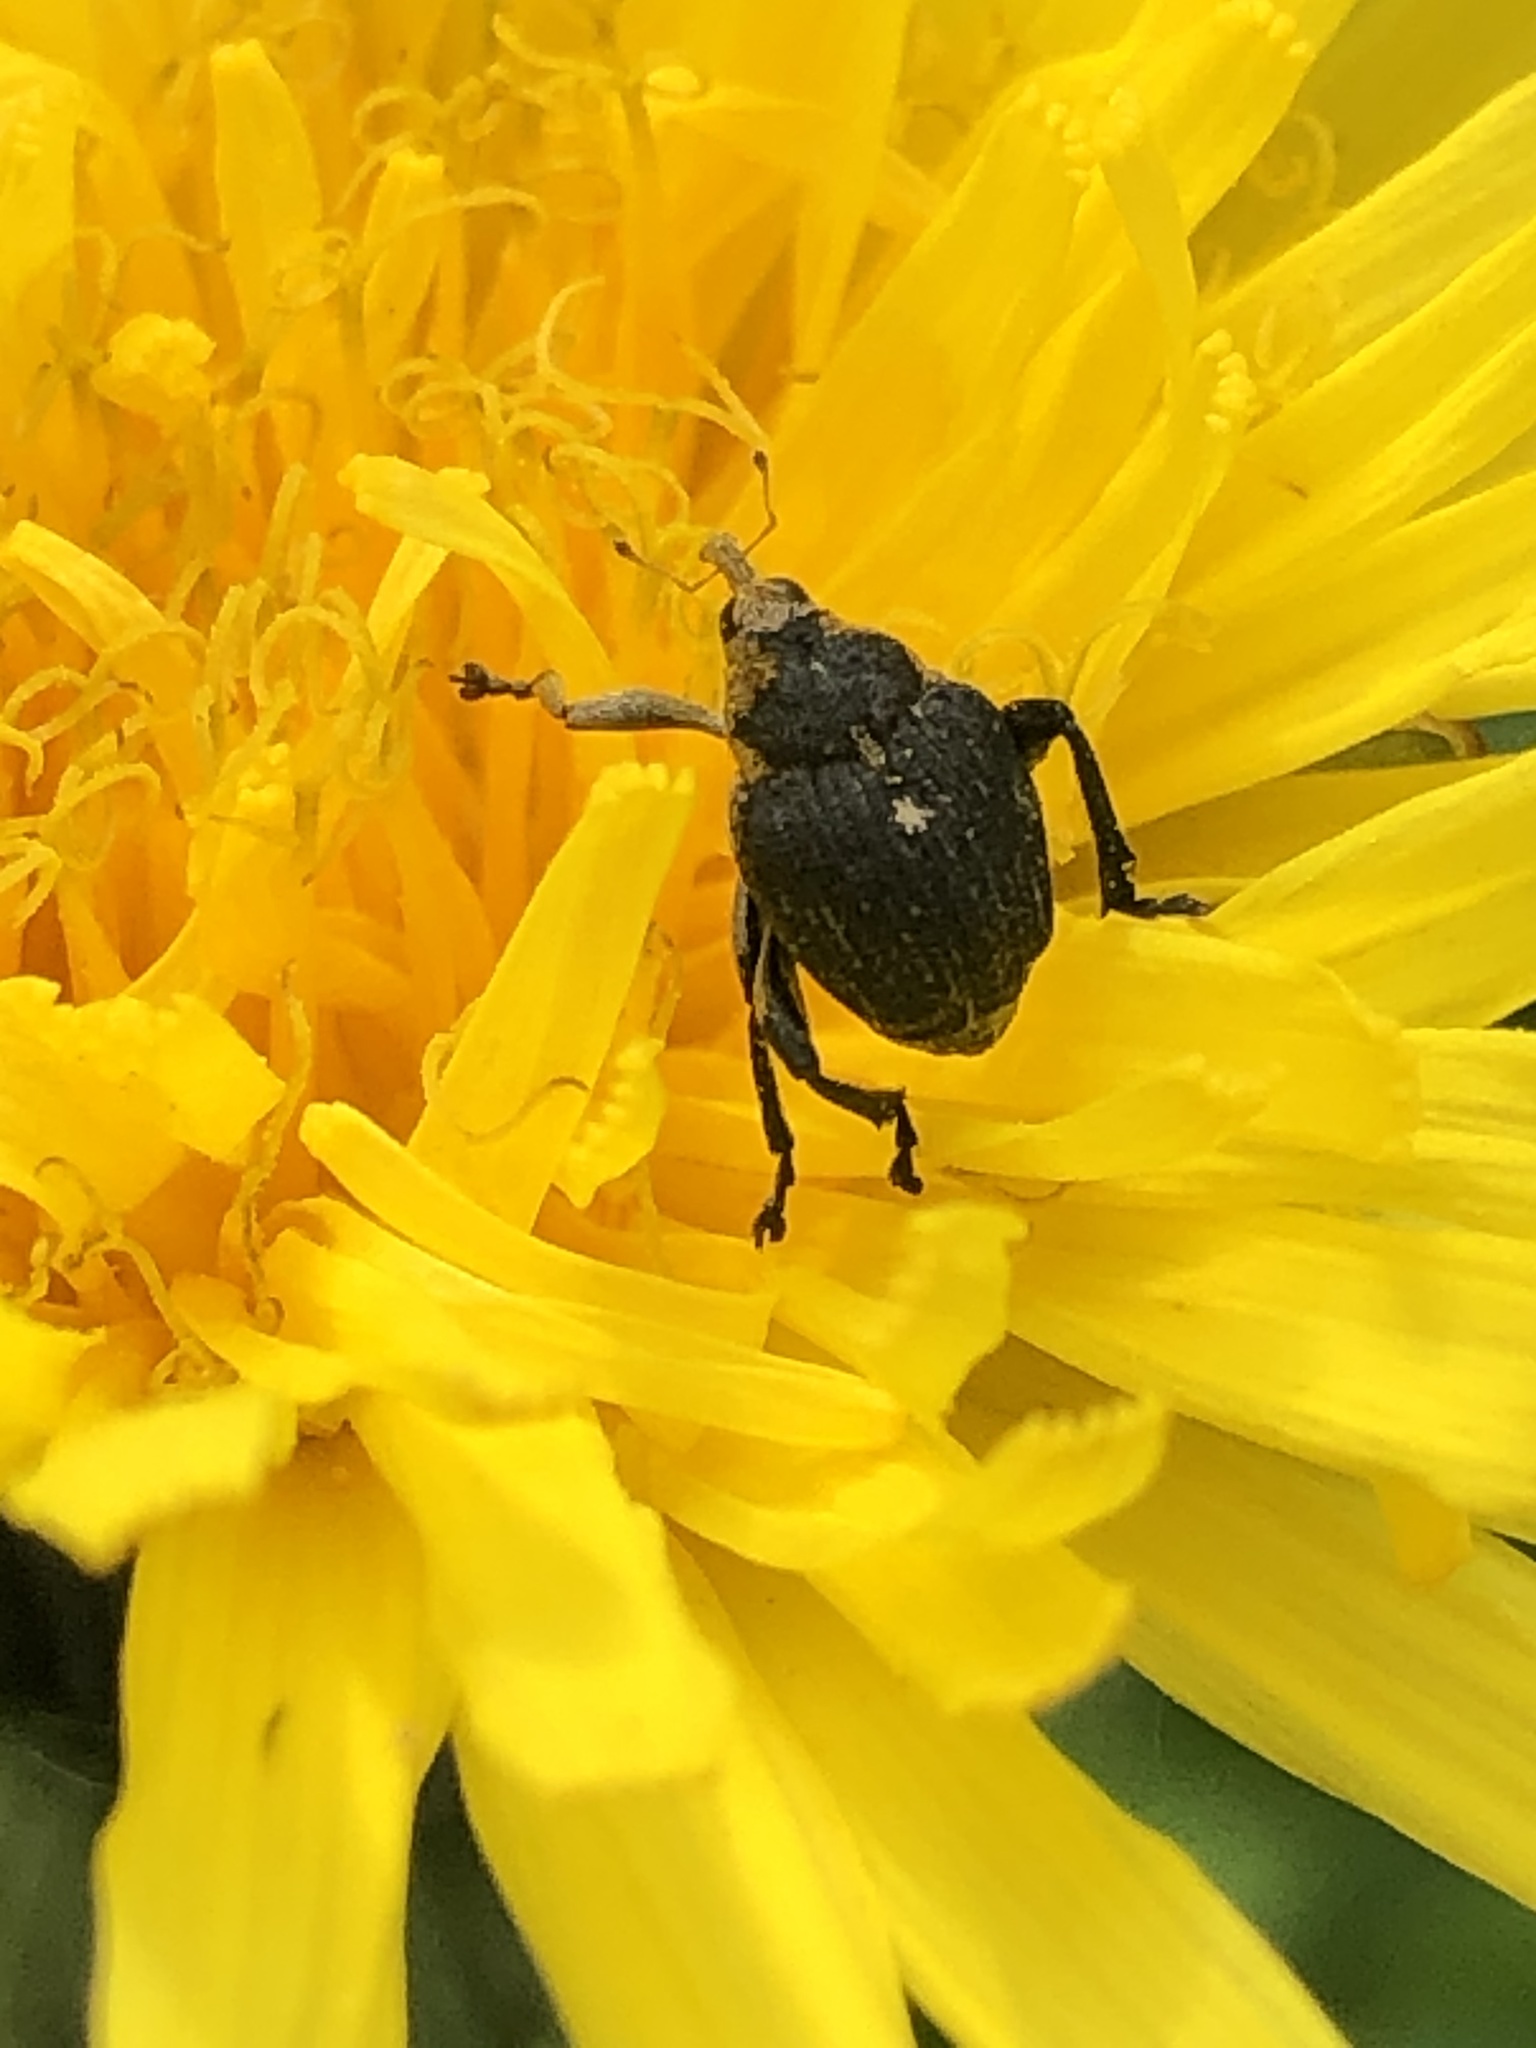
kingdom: Animalia
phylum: Arthropoda
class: Insecta
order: Coleoptera
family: Curculionidae
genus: Mononychus
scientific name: Mononychus punctumalbum
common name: Iris weevil
